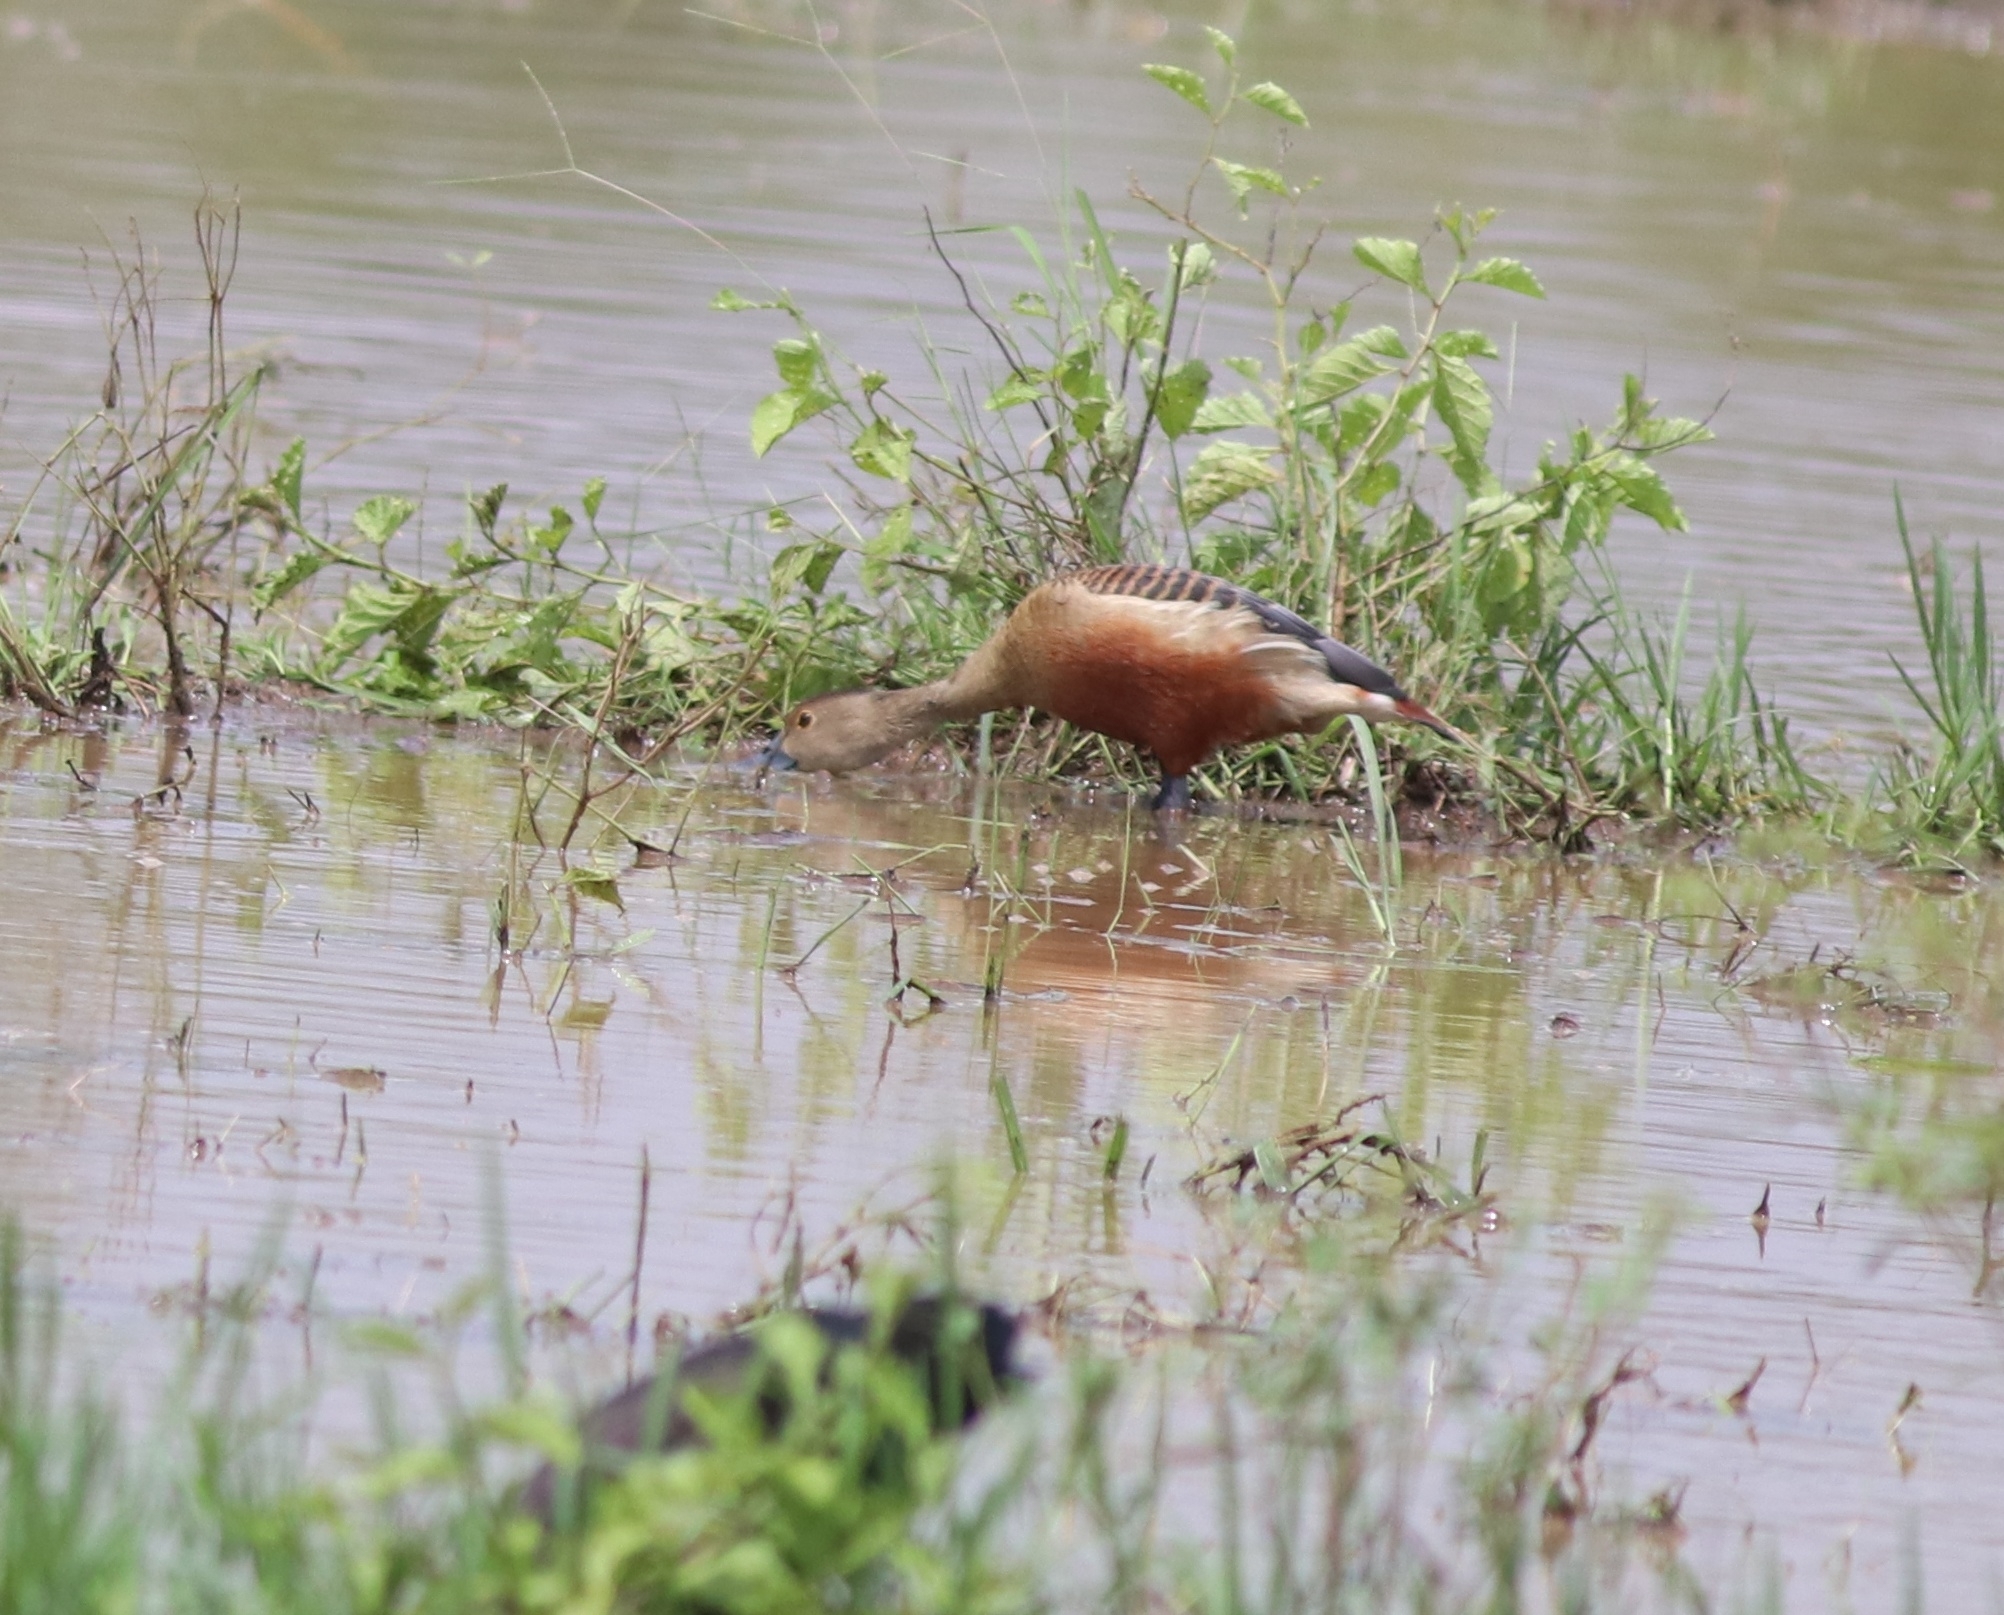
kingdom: Animalia
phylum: Chordata
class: Aves
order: Anseriformes
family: Anatidae
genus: Dendrocygna
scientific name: Dendrocygna javanica
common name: Lesser whistling-duck
